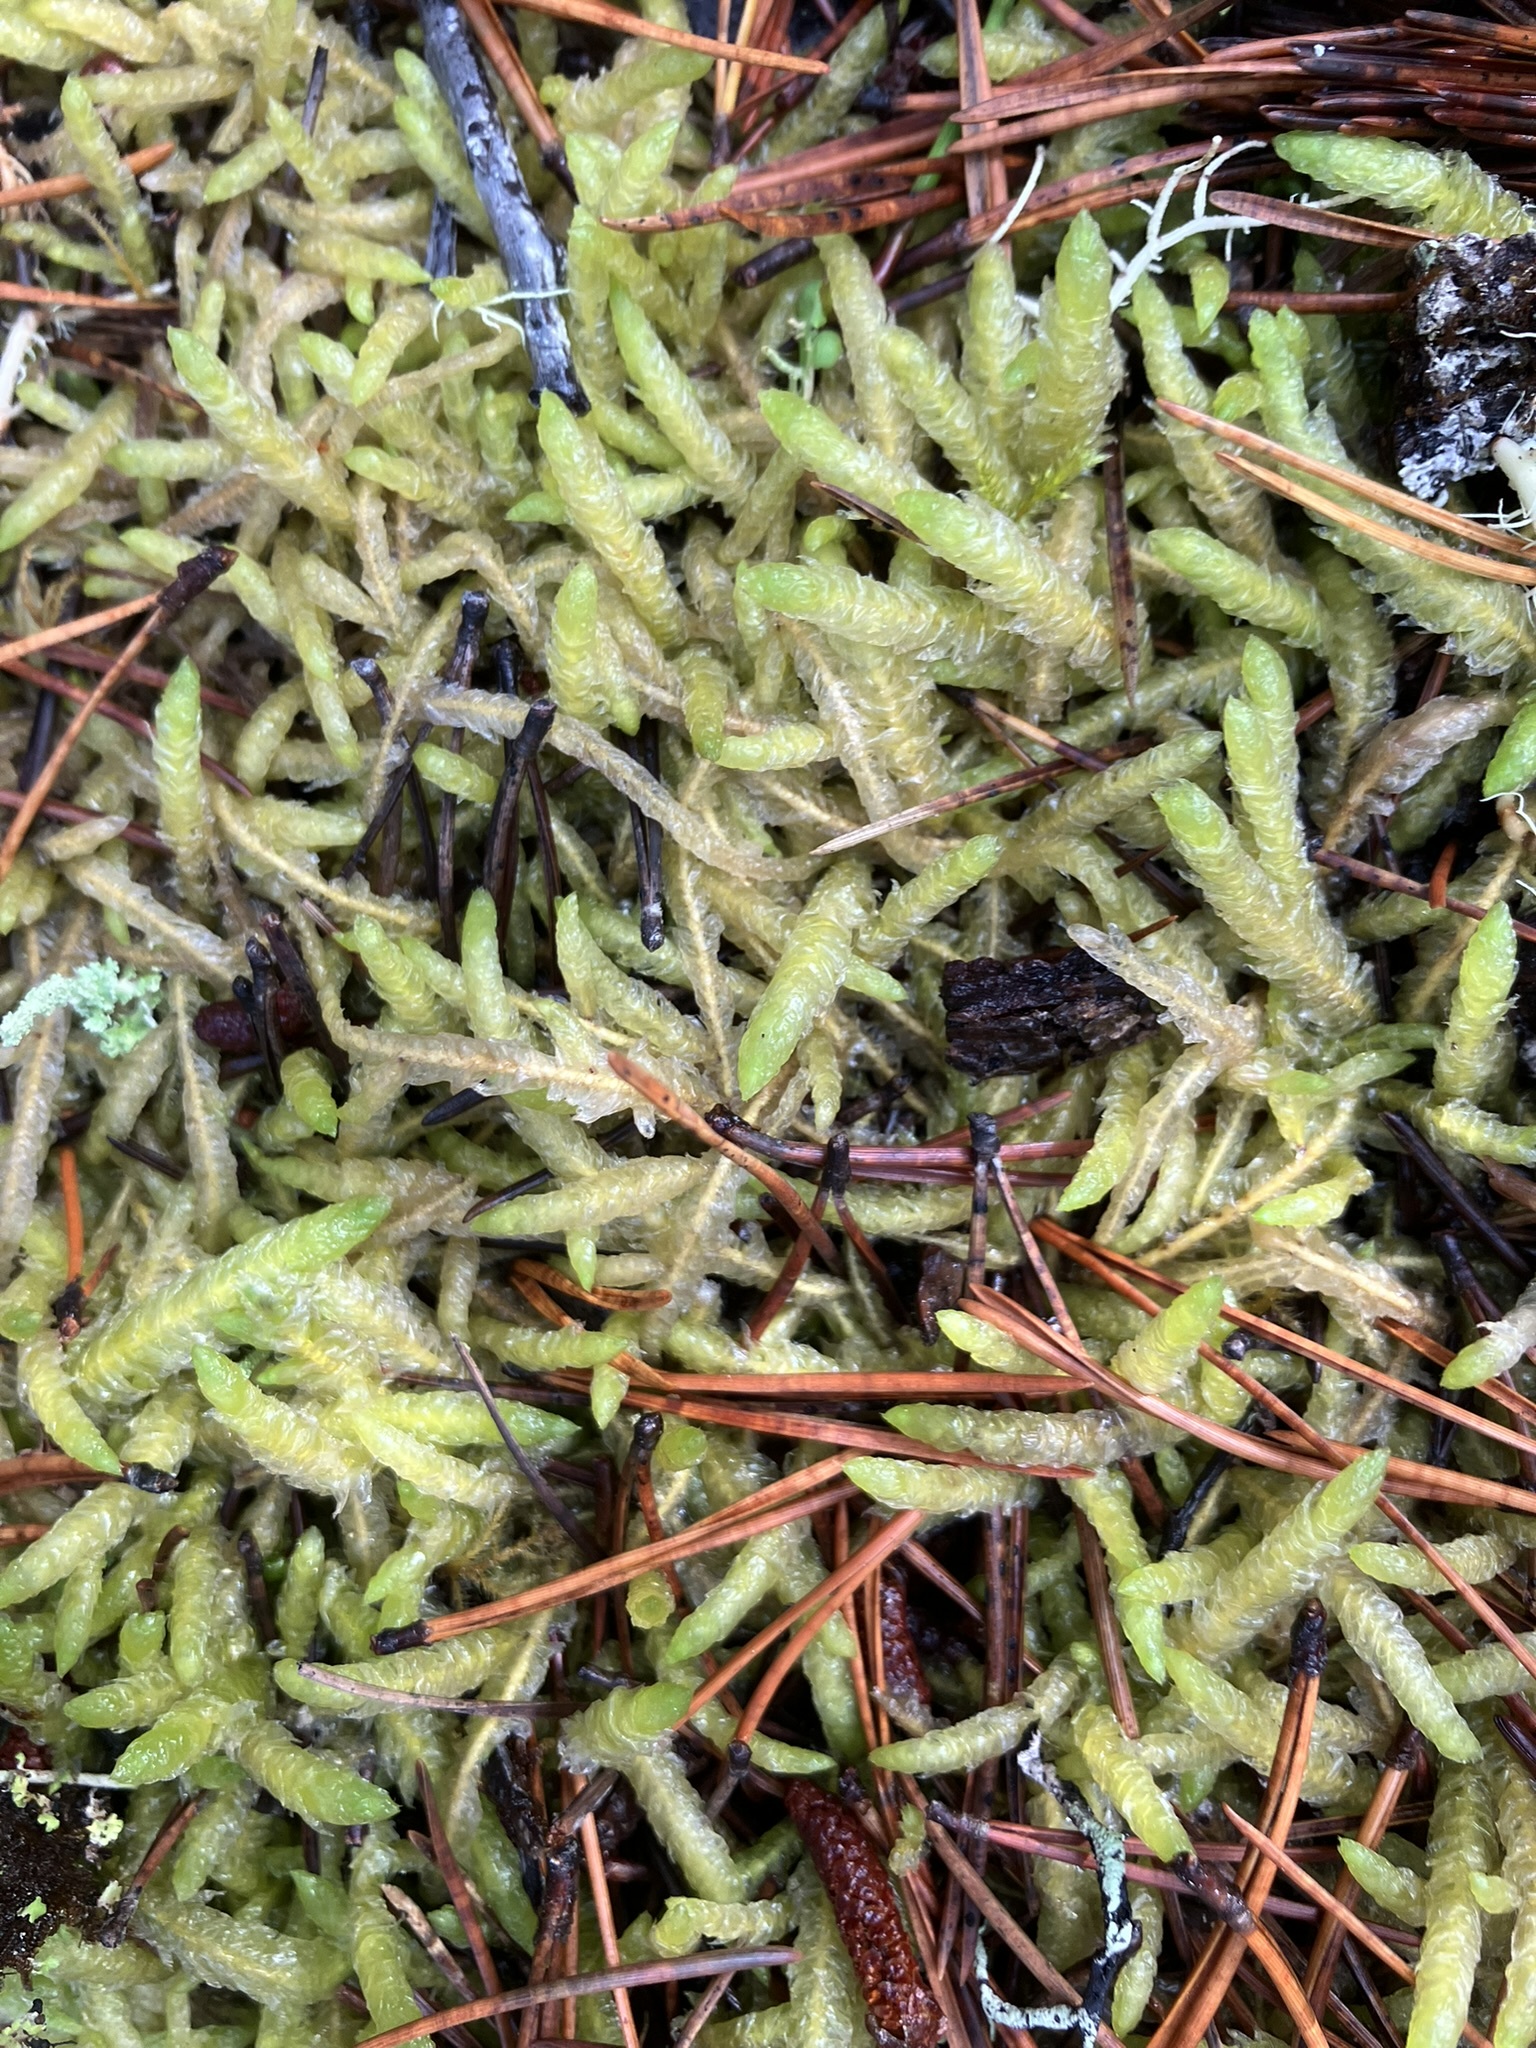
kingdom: Plantae
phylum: Bryophyta
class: Bryopsida
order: Hypnales
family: Plagiotheciaceae
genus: Plagiothecium
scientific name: Plagiothecium undulatum
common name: Waved silk-moss
